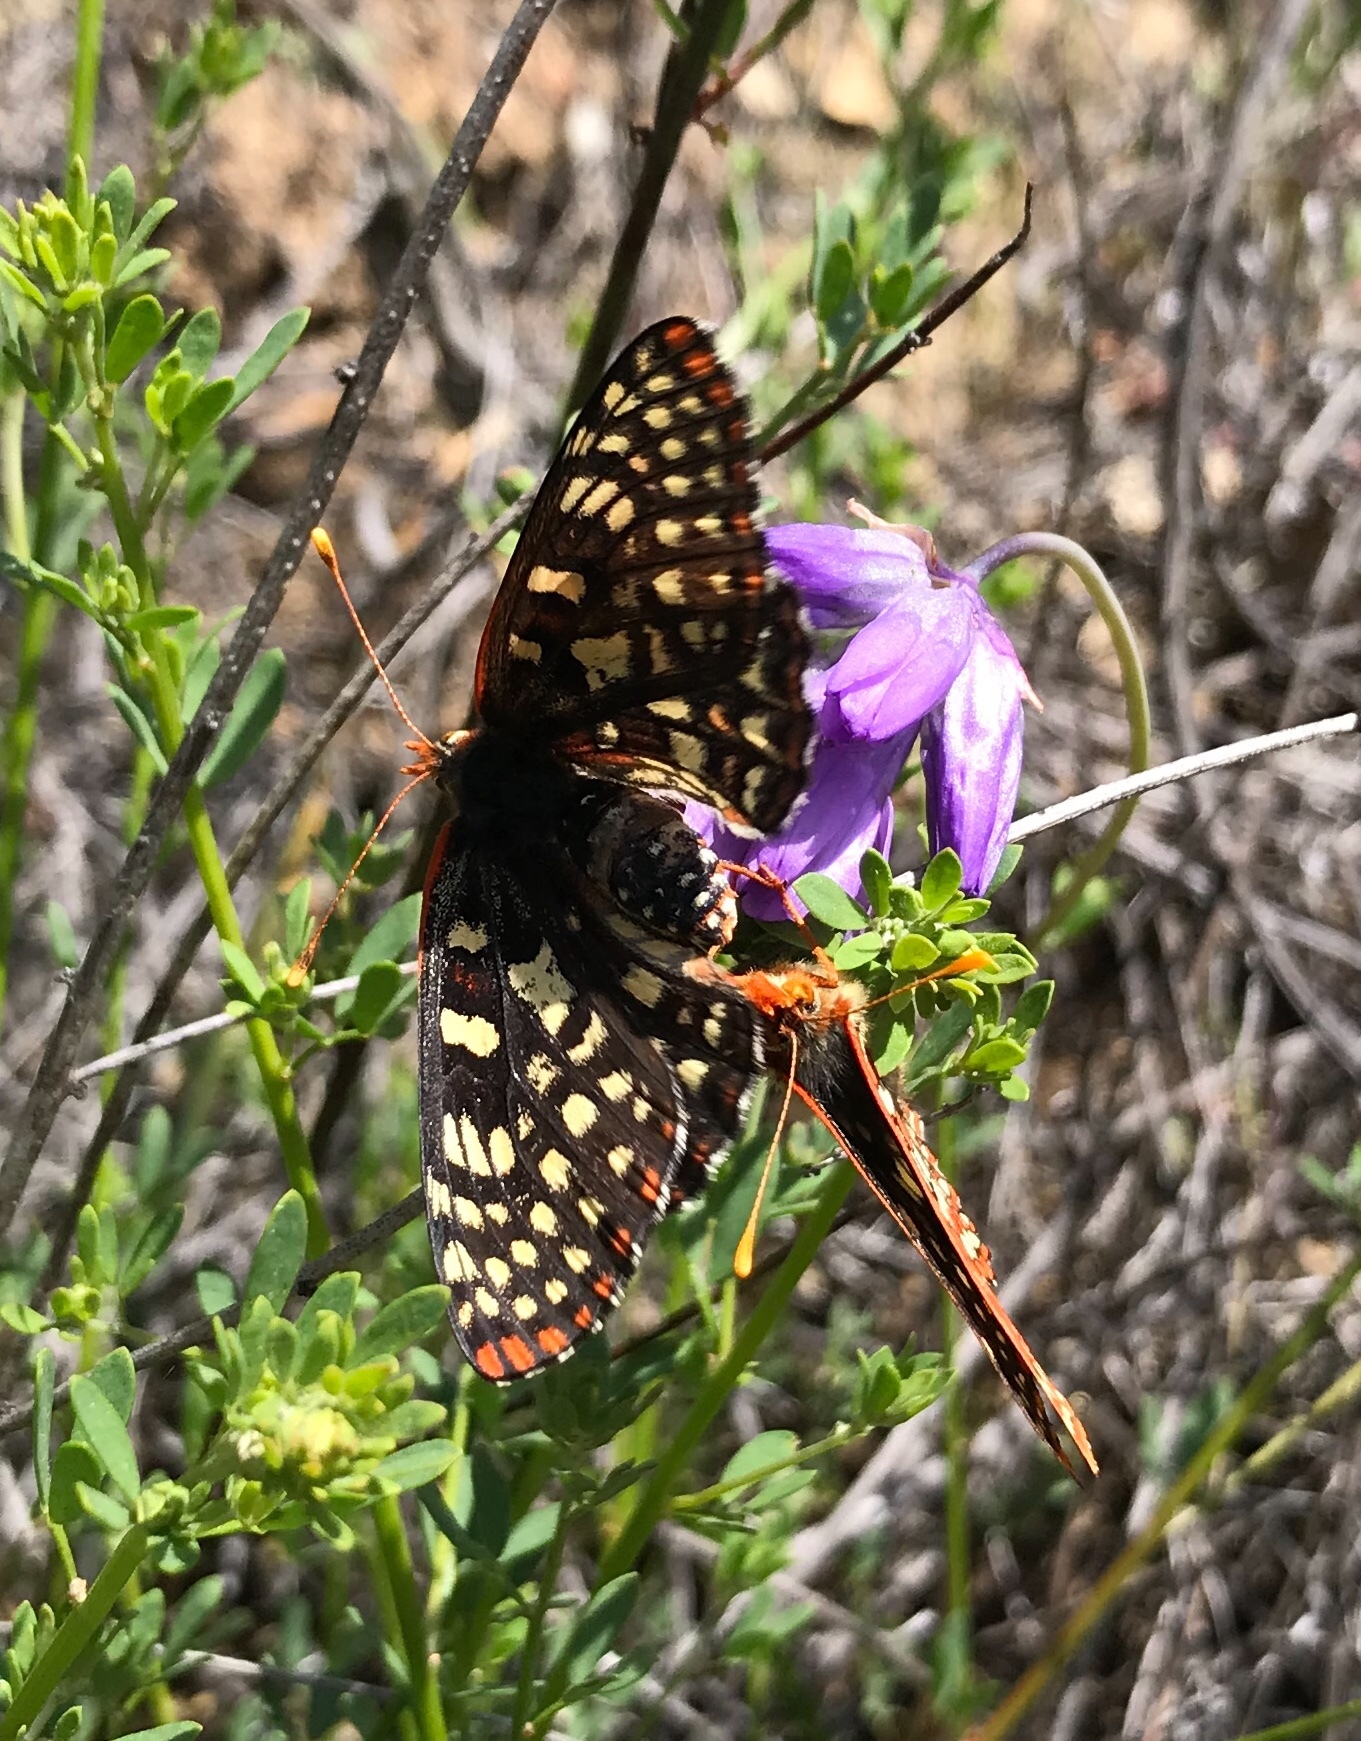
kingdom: Animalia
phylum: Arthropoda
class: Insecta
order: Lepidoptera
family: Nymphalidae
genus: Occidryas
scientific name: Occidryas chalcedona
